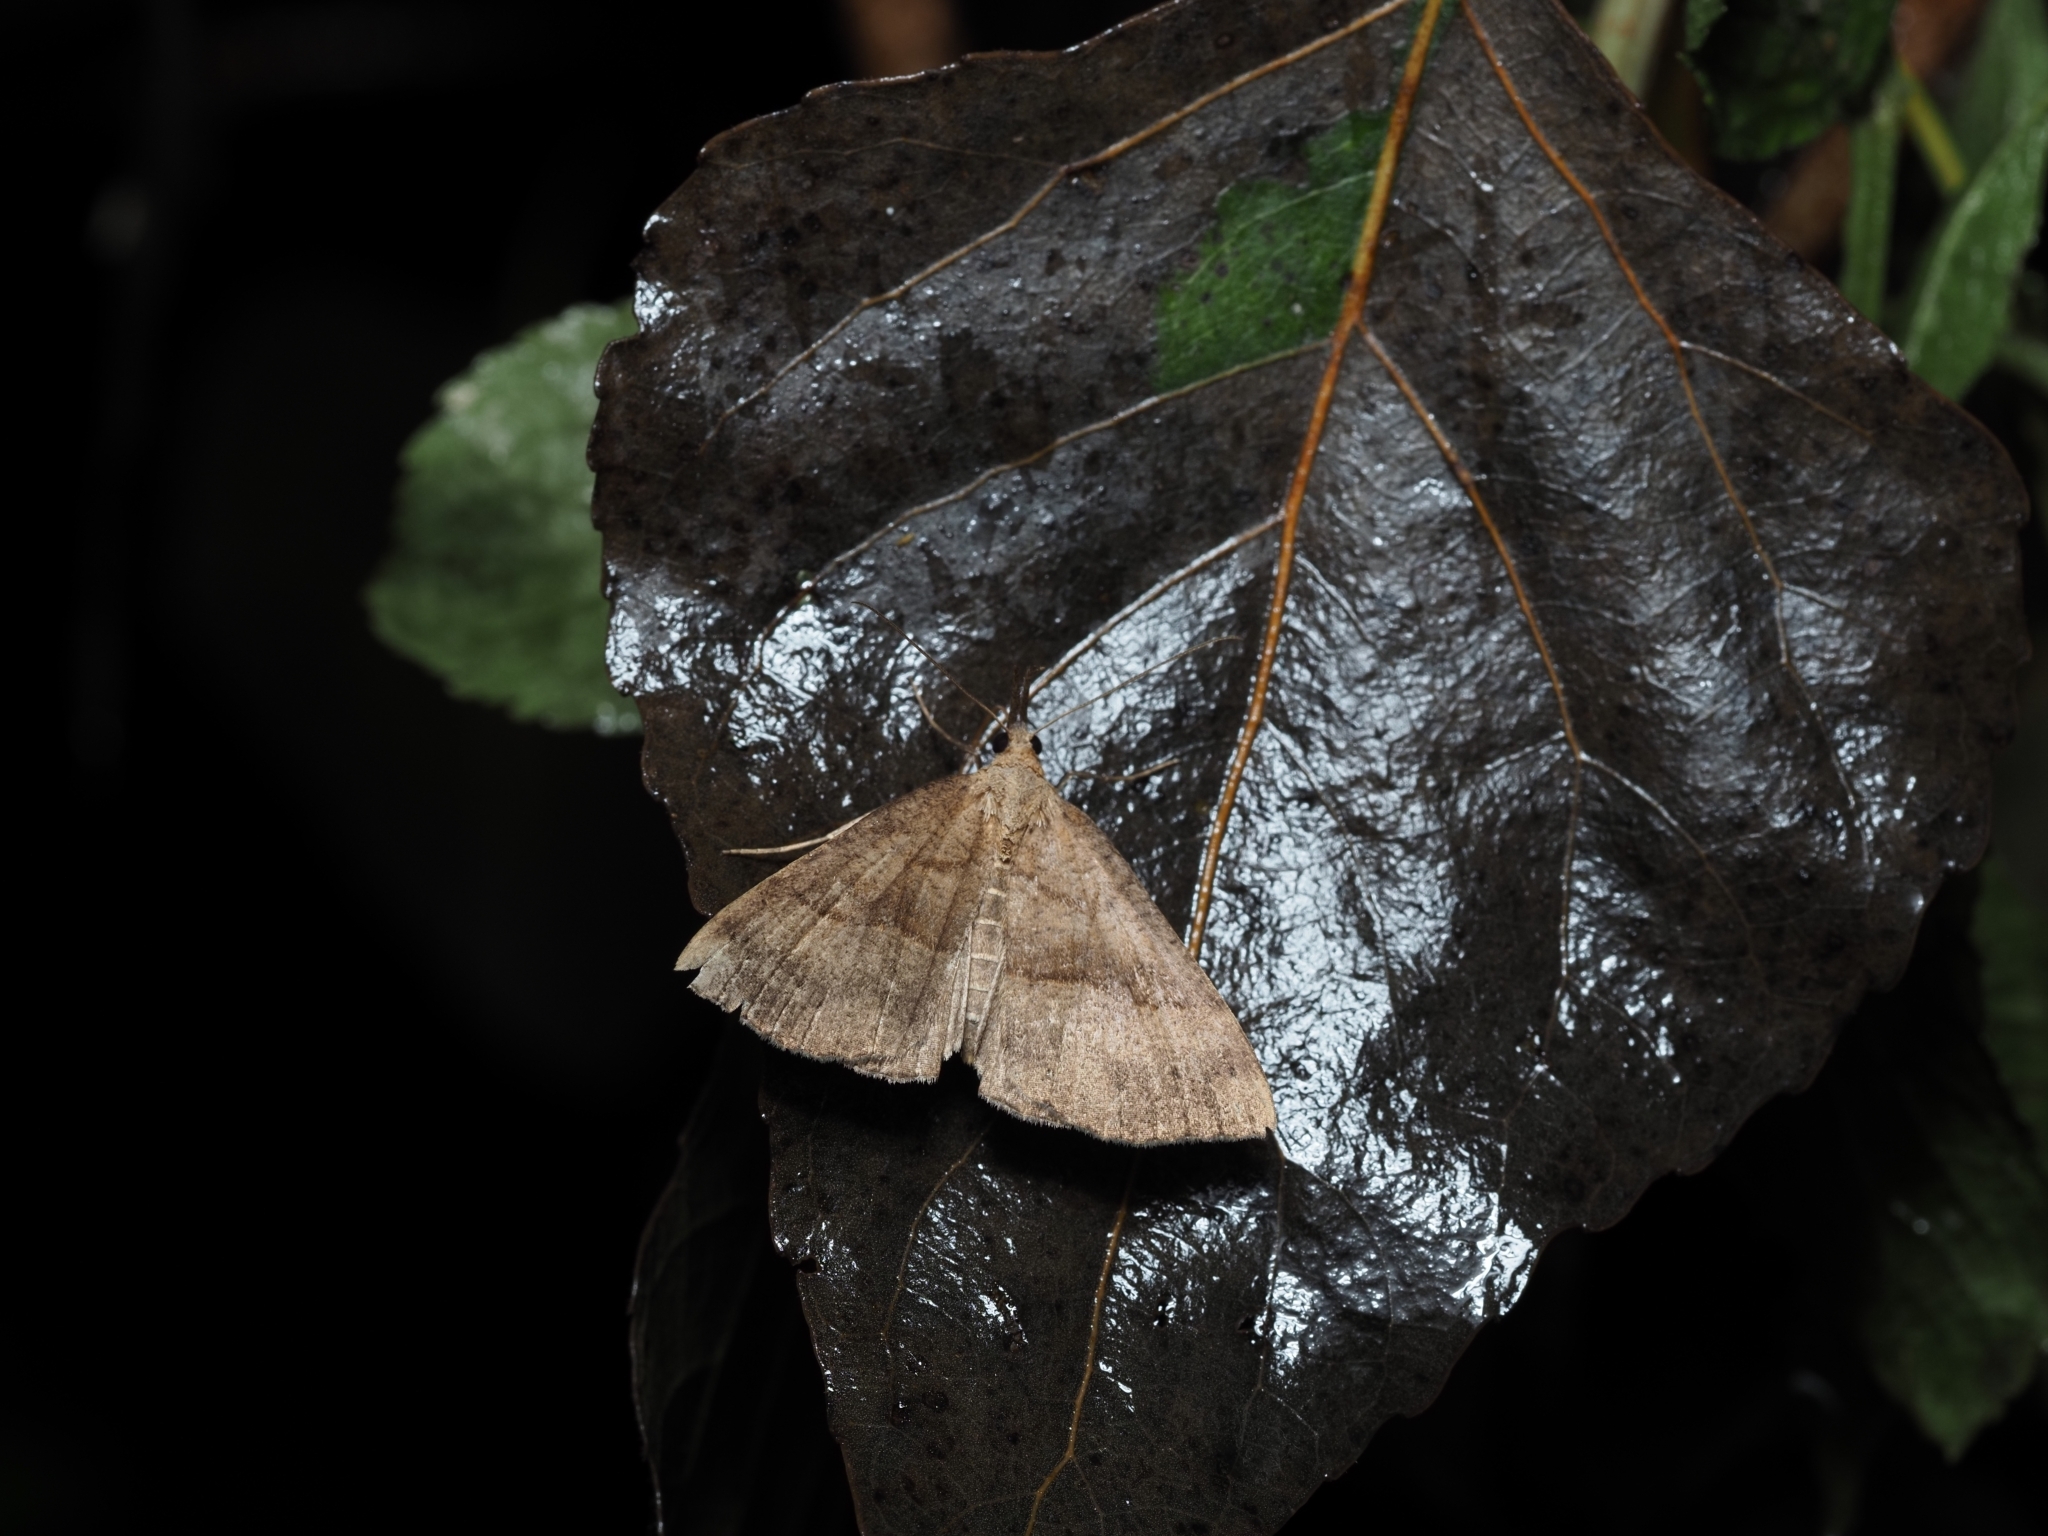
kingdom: Animalia
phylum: Arthropoda
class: Insecta
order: Lepidoptera
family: Erebidae
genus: Hypena
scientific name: Hypena proboscidalis
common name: Snout
